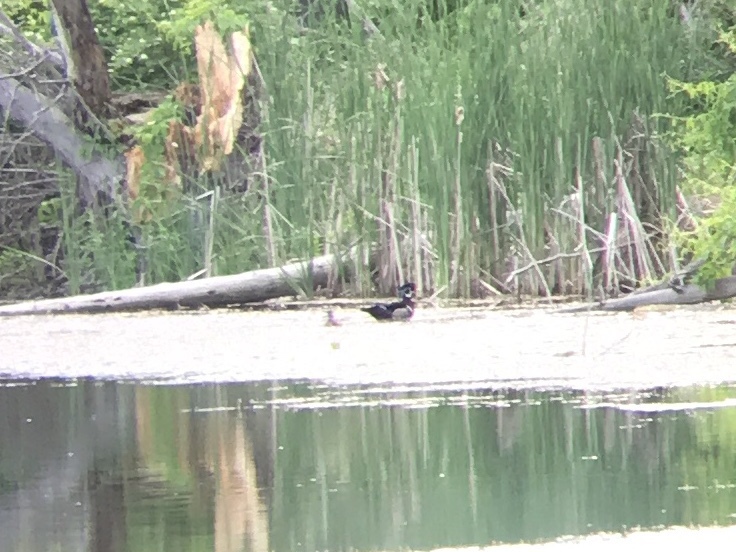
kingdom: Animalia
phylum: Chordata
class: Aves
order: Anseriformes
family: Anatidae
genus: Aix
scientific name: Aix sponsa
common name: Wood duck
